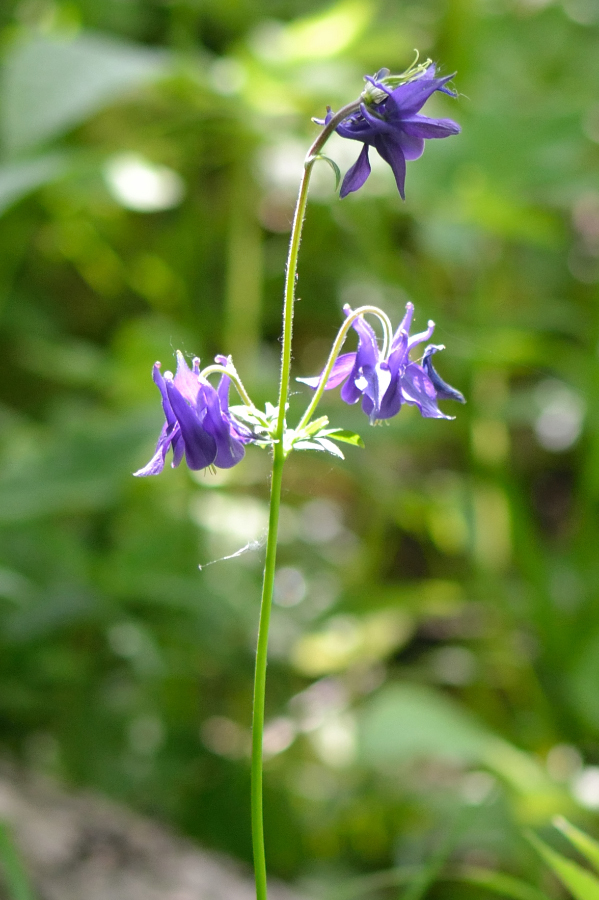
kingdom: Plantae
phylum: Tracheophyta
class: Magnoliopsida
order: Ranunculales
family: Ranunculaceae
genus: Aquilegia
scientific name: Aquilegia vulgaris
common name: Columbine
